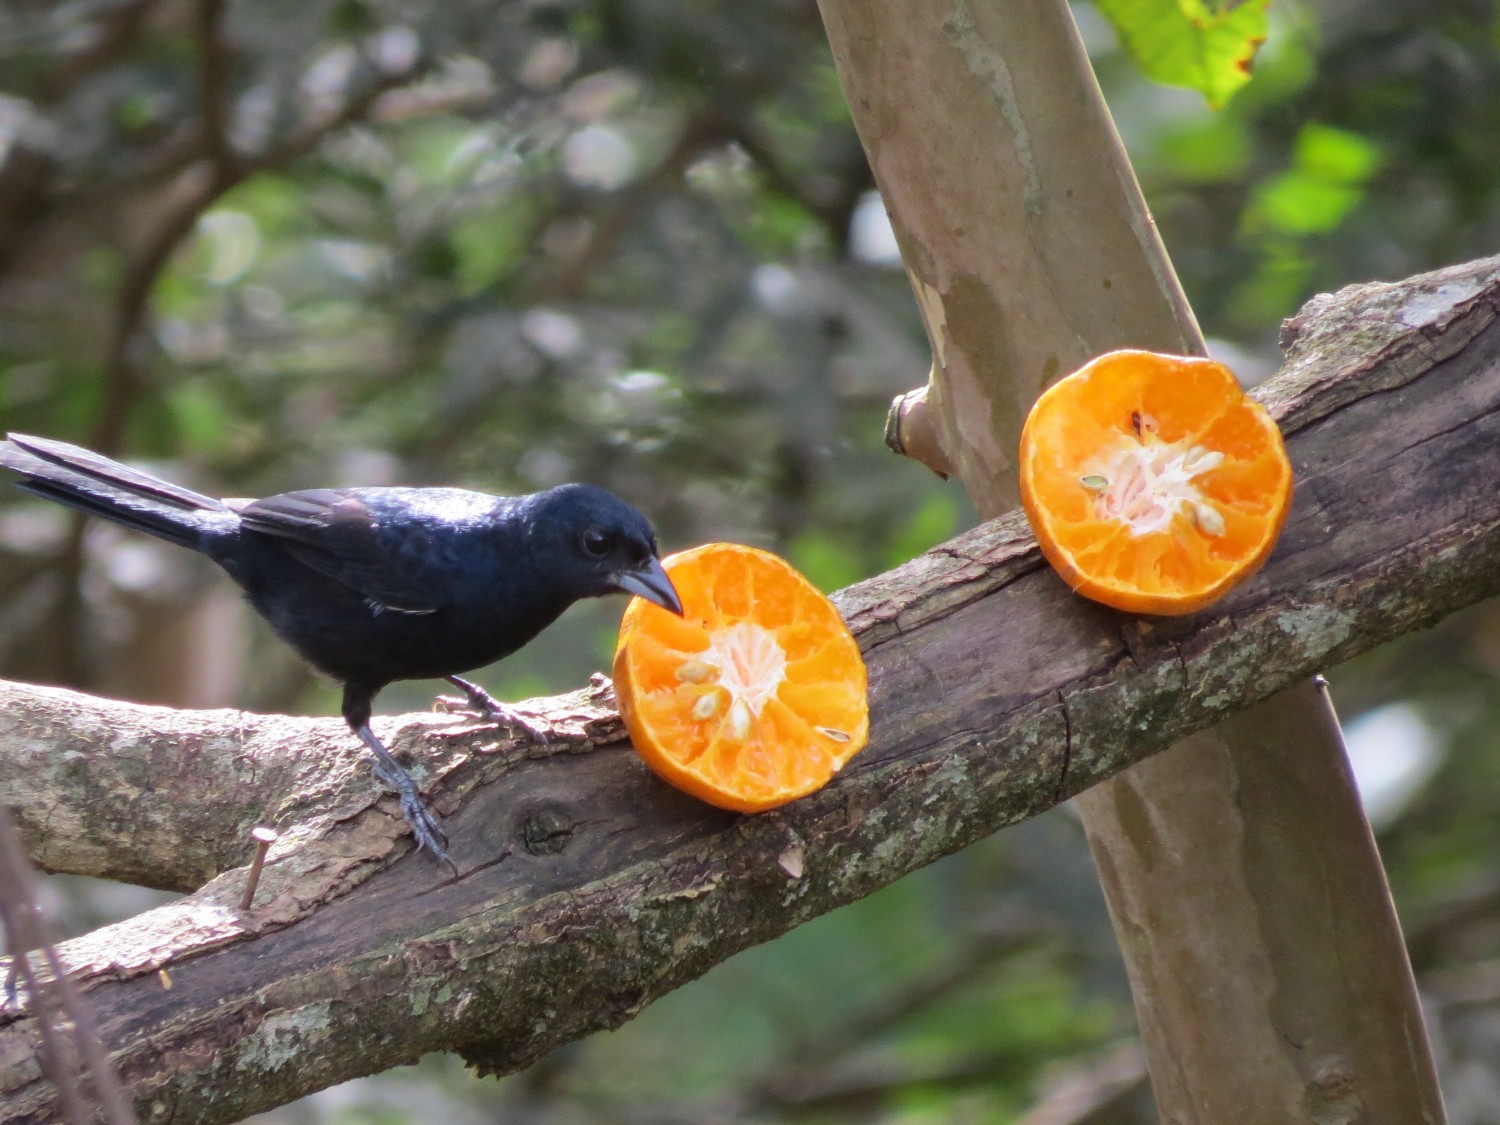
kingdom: Animalia
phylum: Chordata
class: Aves
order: Passeriformes
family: Thraupidae
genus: Tachyphonus
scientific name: Tachyphonus coronatus
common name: Ruby-crowned tanager
